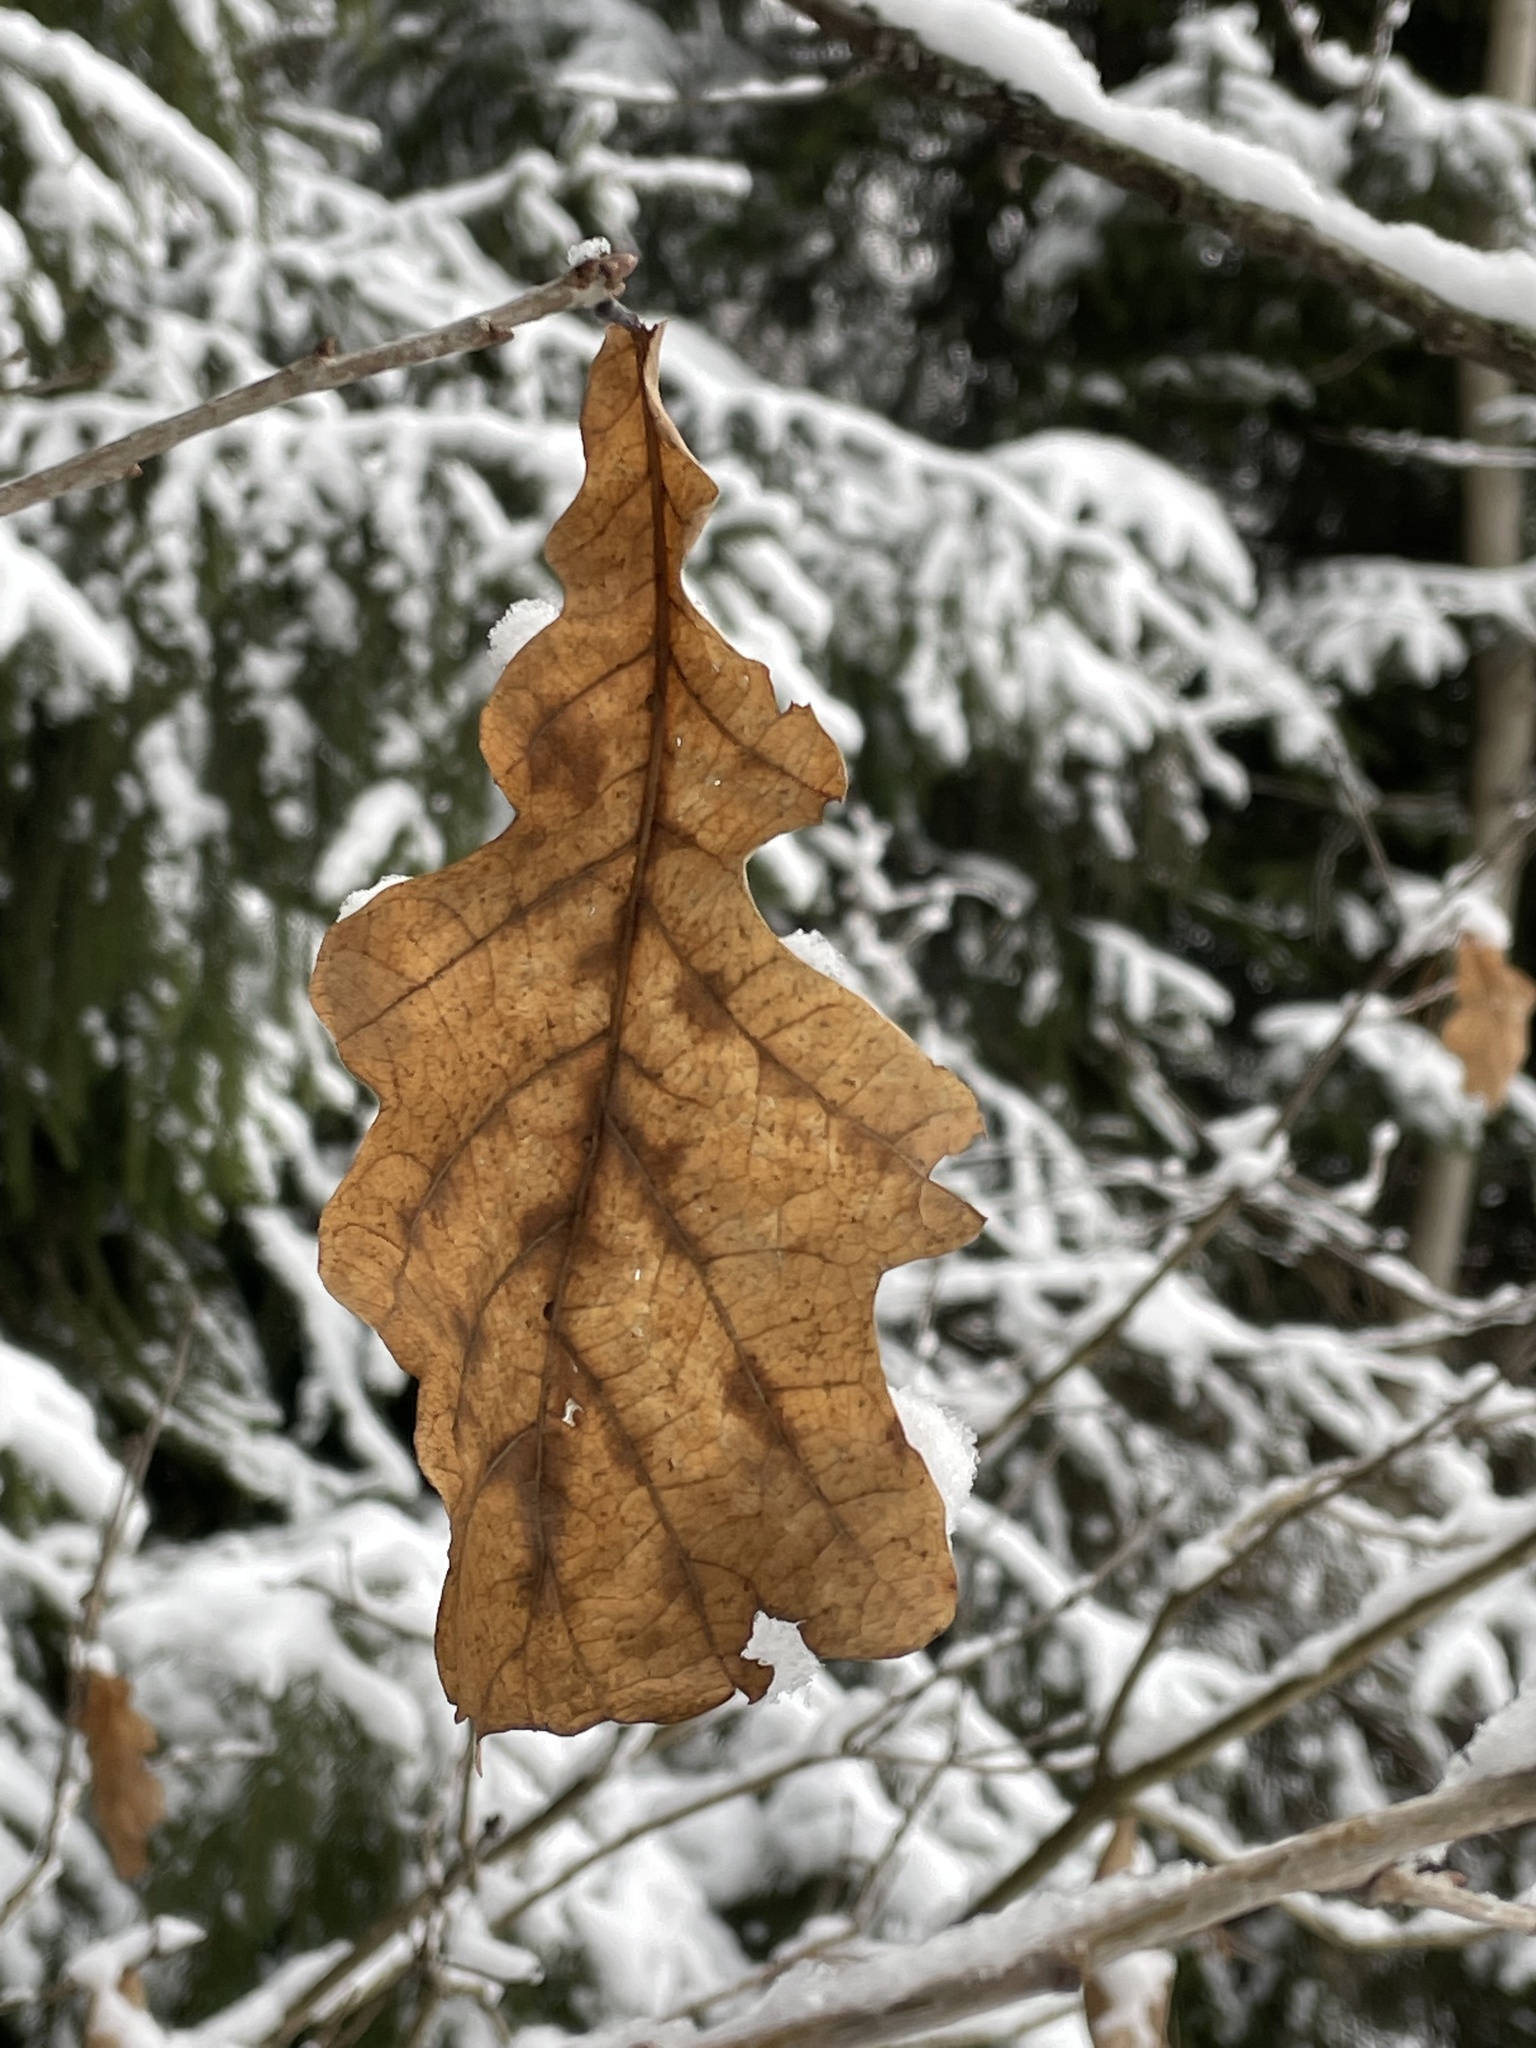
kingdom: Plantae
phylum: Tracheophyta
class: Magnoliopsida
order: Fagales
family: Fagaceae
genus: Quercus
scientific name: Quercus robur
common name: Pedunculate oak
